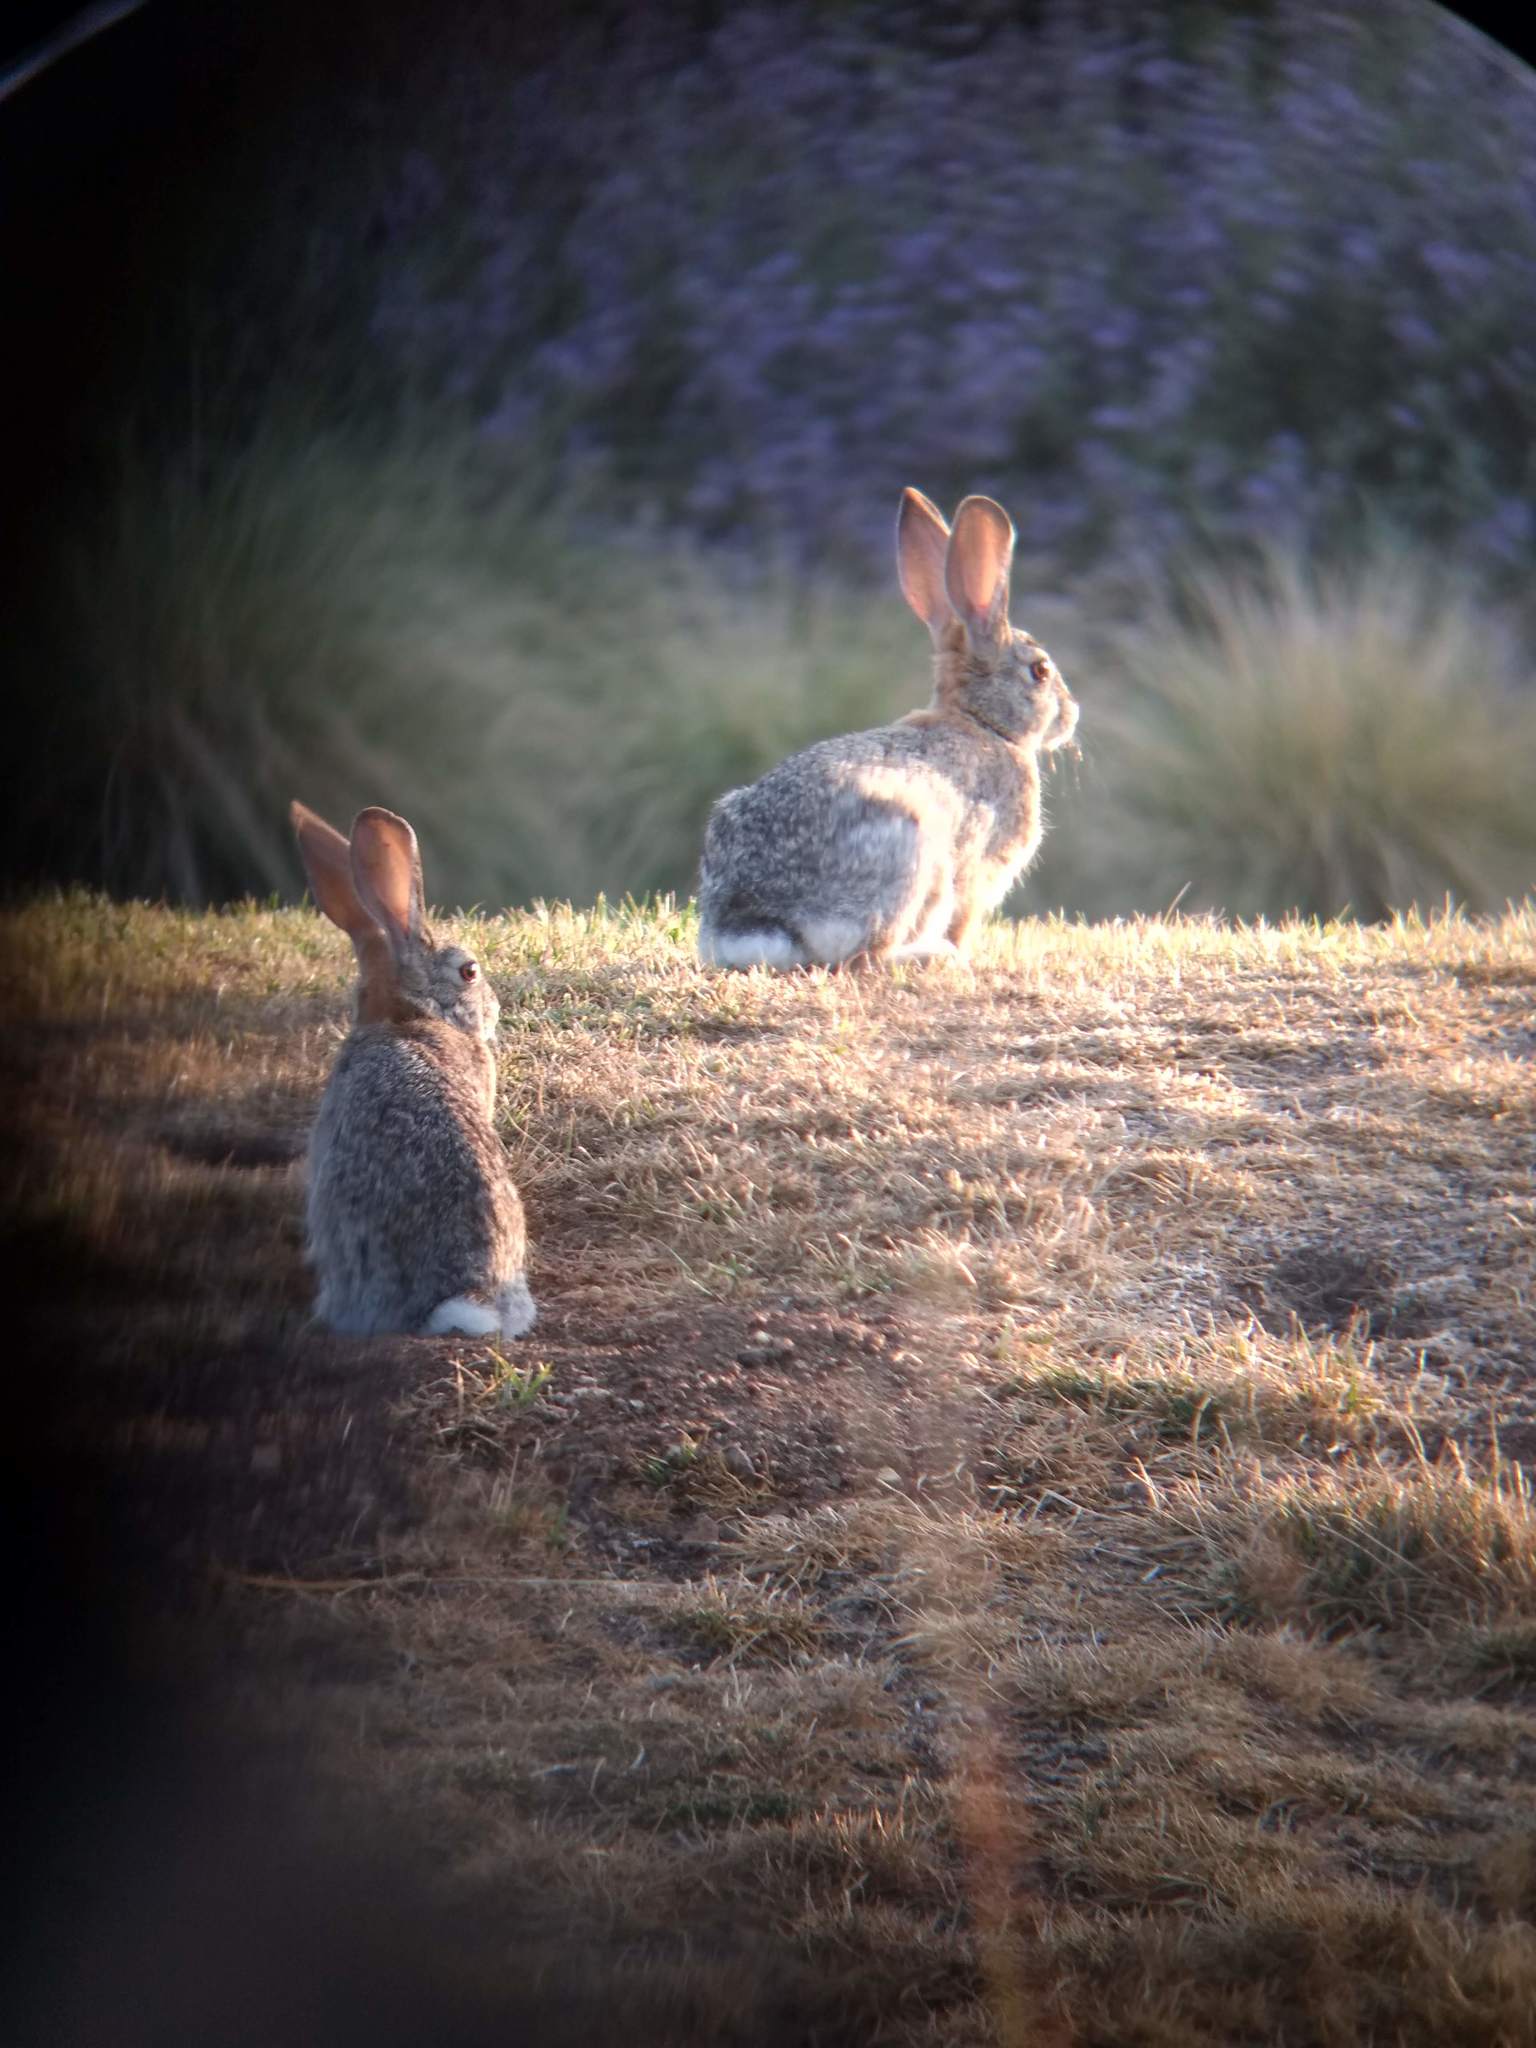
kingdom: Animalia
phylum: Chordata
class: Mammalia
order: Lagomorpha
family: Leporidae
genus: Sylvilagus
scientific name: Sylvilagus audubonii
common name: Desert cottontail
